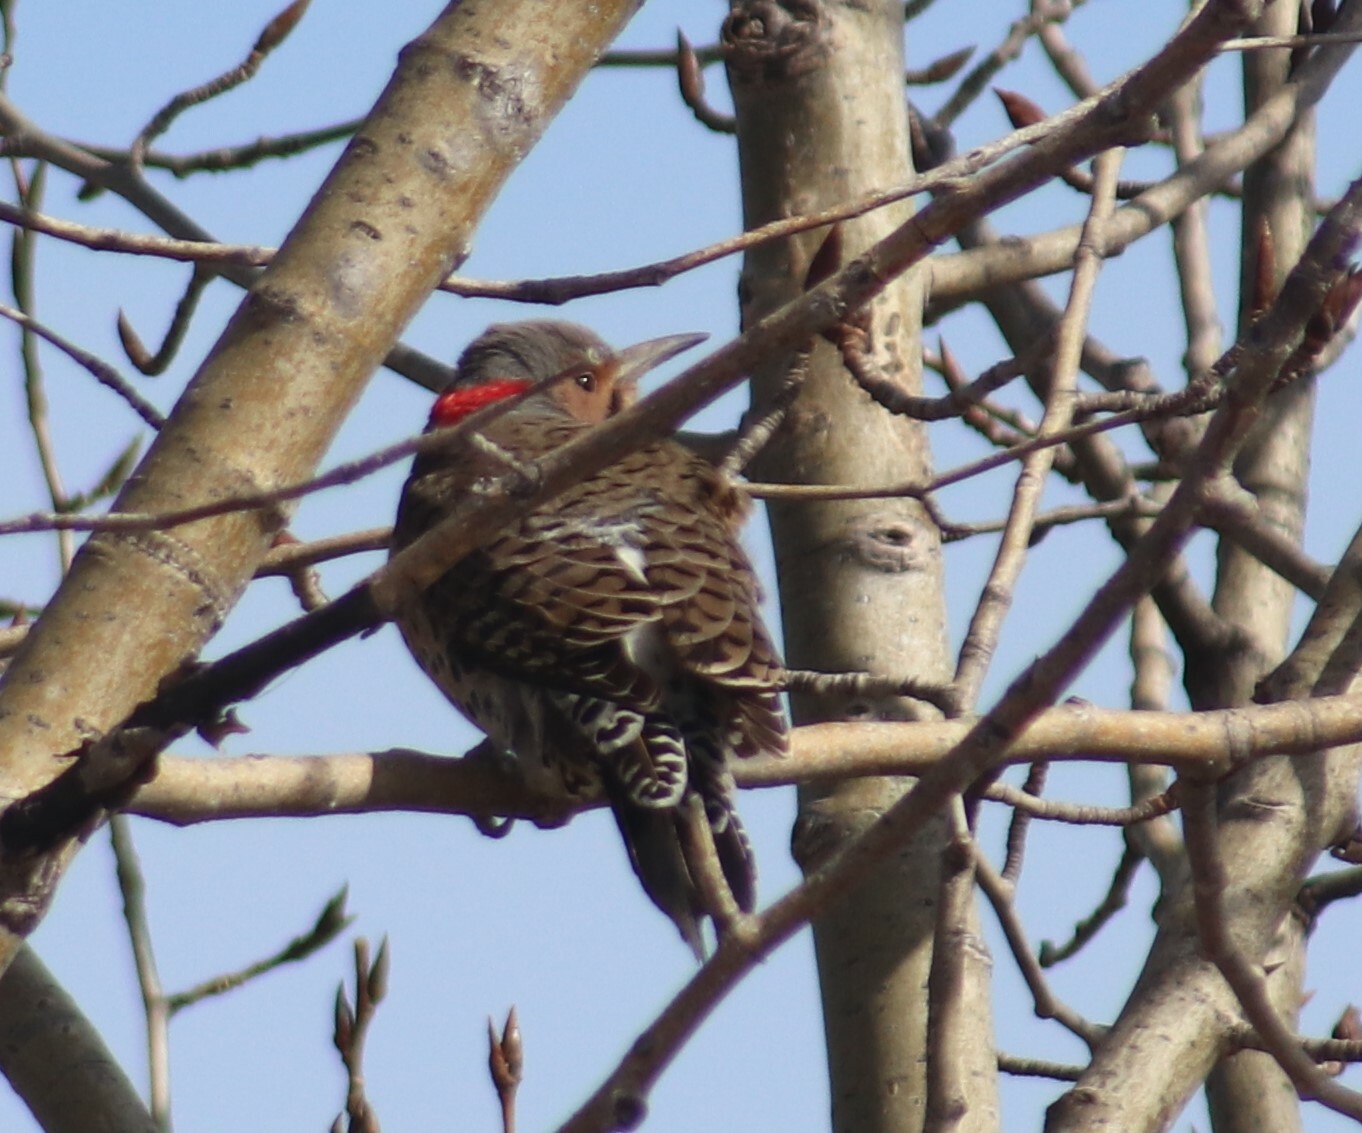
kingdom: Animalia
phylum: Chordata
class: Aves
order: Piciformes
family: Picidae
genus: Colaptes
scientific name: Colaptes auratus
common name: Northern flicker
